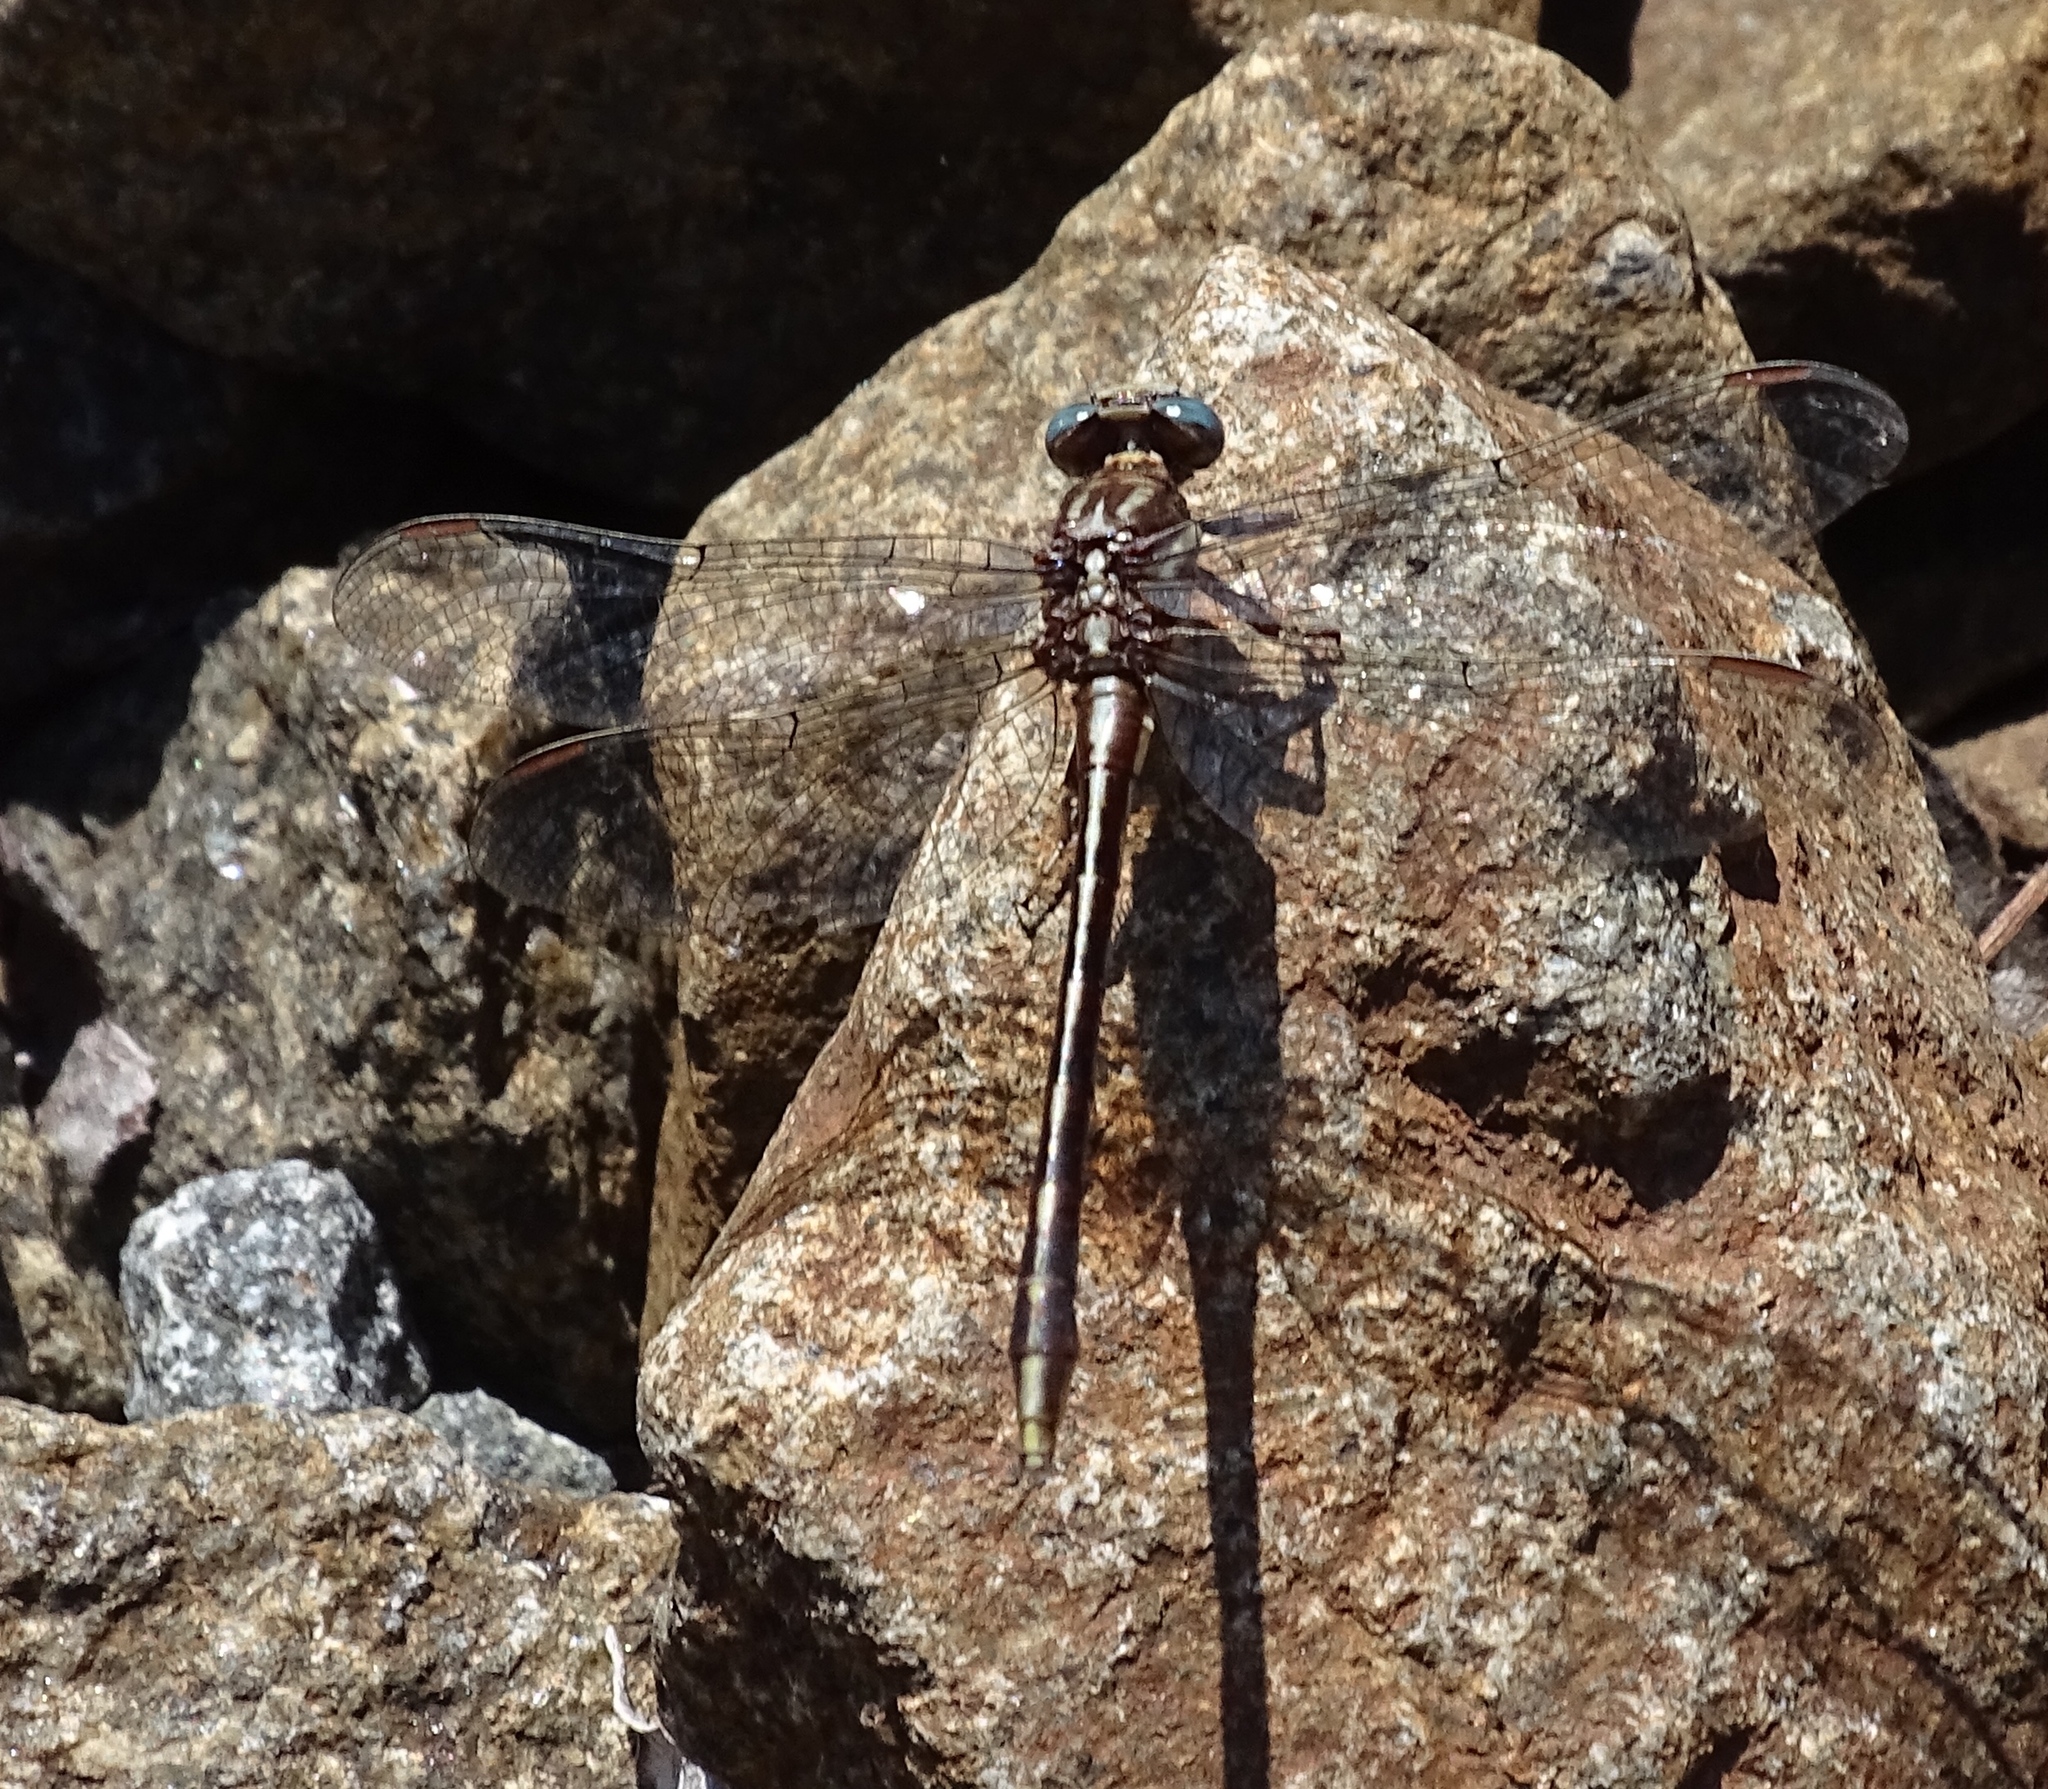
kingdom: Animalia
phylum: Arthropoda
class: Insecta
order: Odonata
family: Gomphidae
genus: Phanogomphus
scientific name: Phanogomphus exilis
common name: Lancet clubtail
